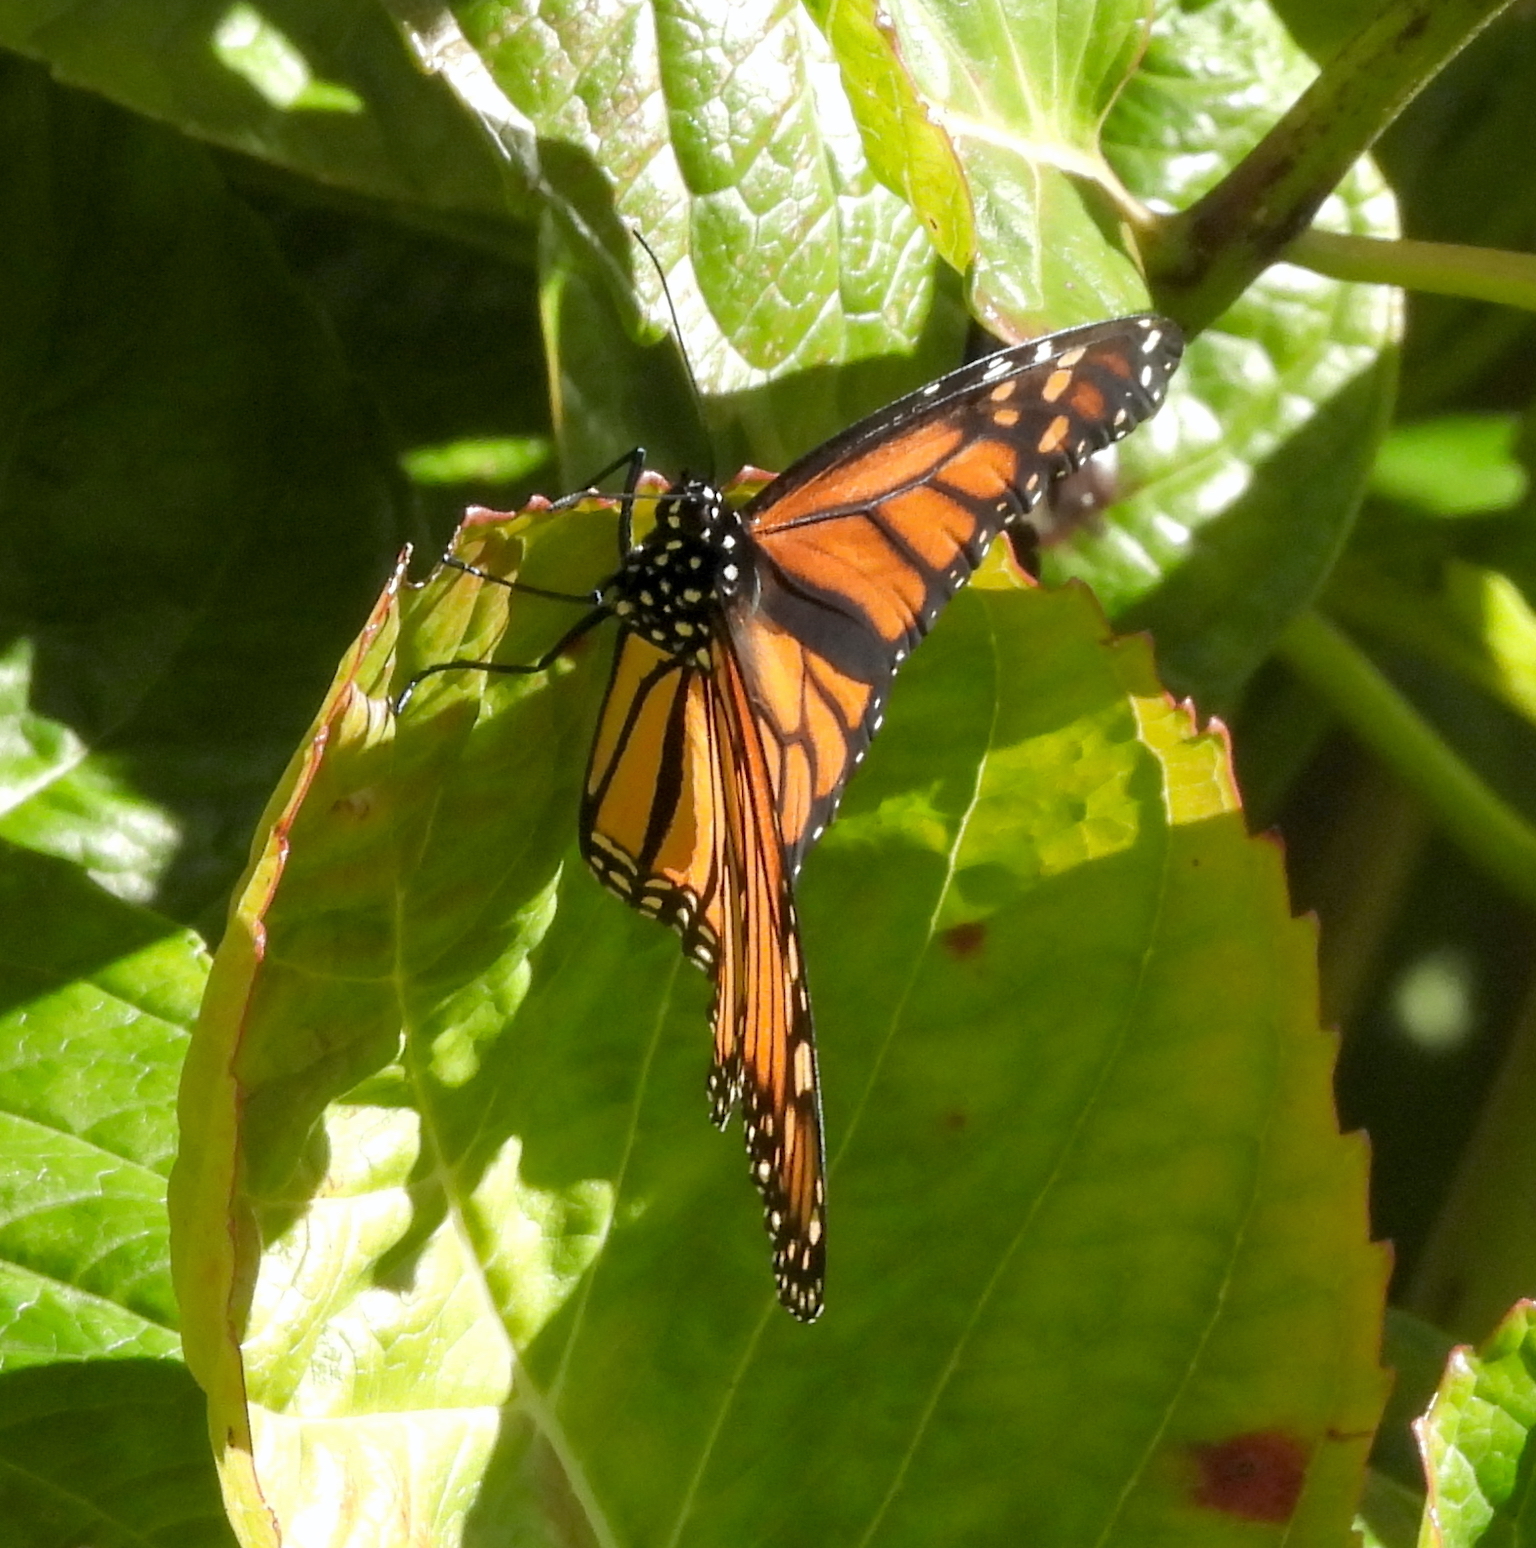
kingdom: Animalia
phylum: Arthropoda
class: Insecta
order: Lepidoptera
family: Nymphalidae
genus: Danaus
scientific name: Danaus plexippus
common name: Monarch
